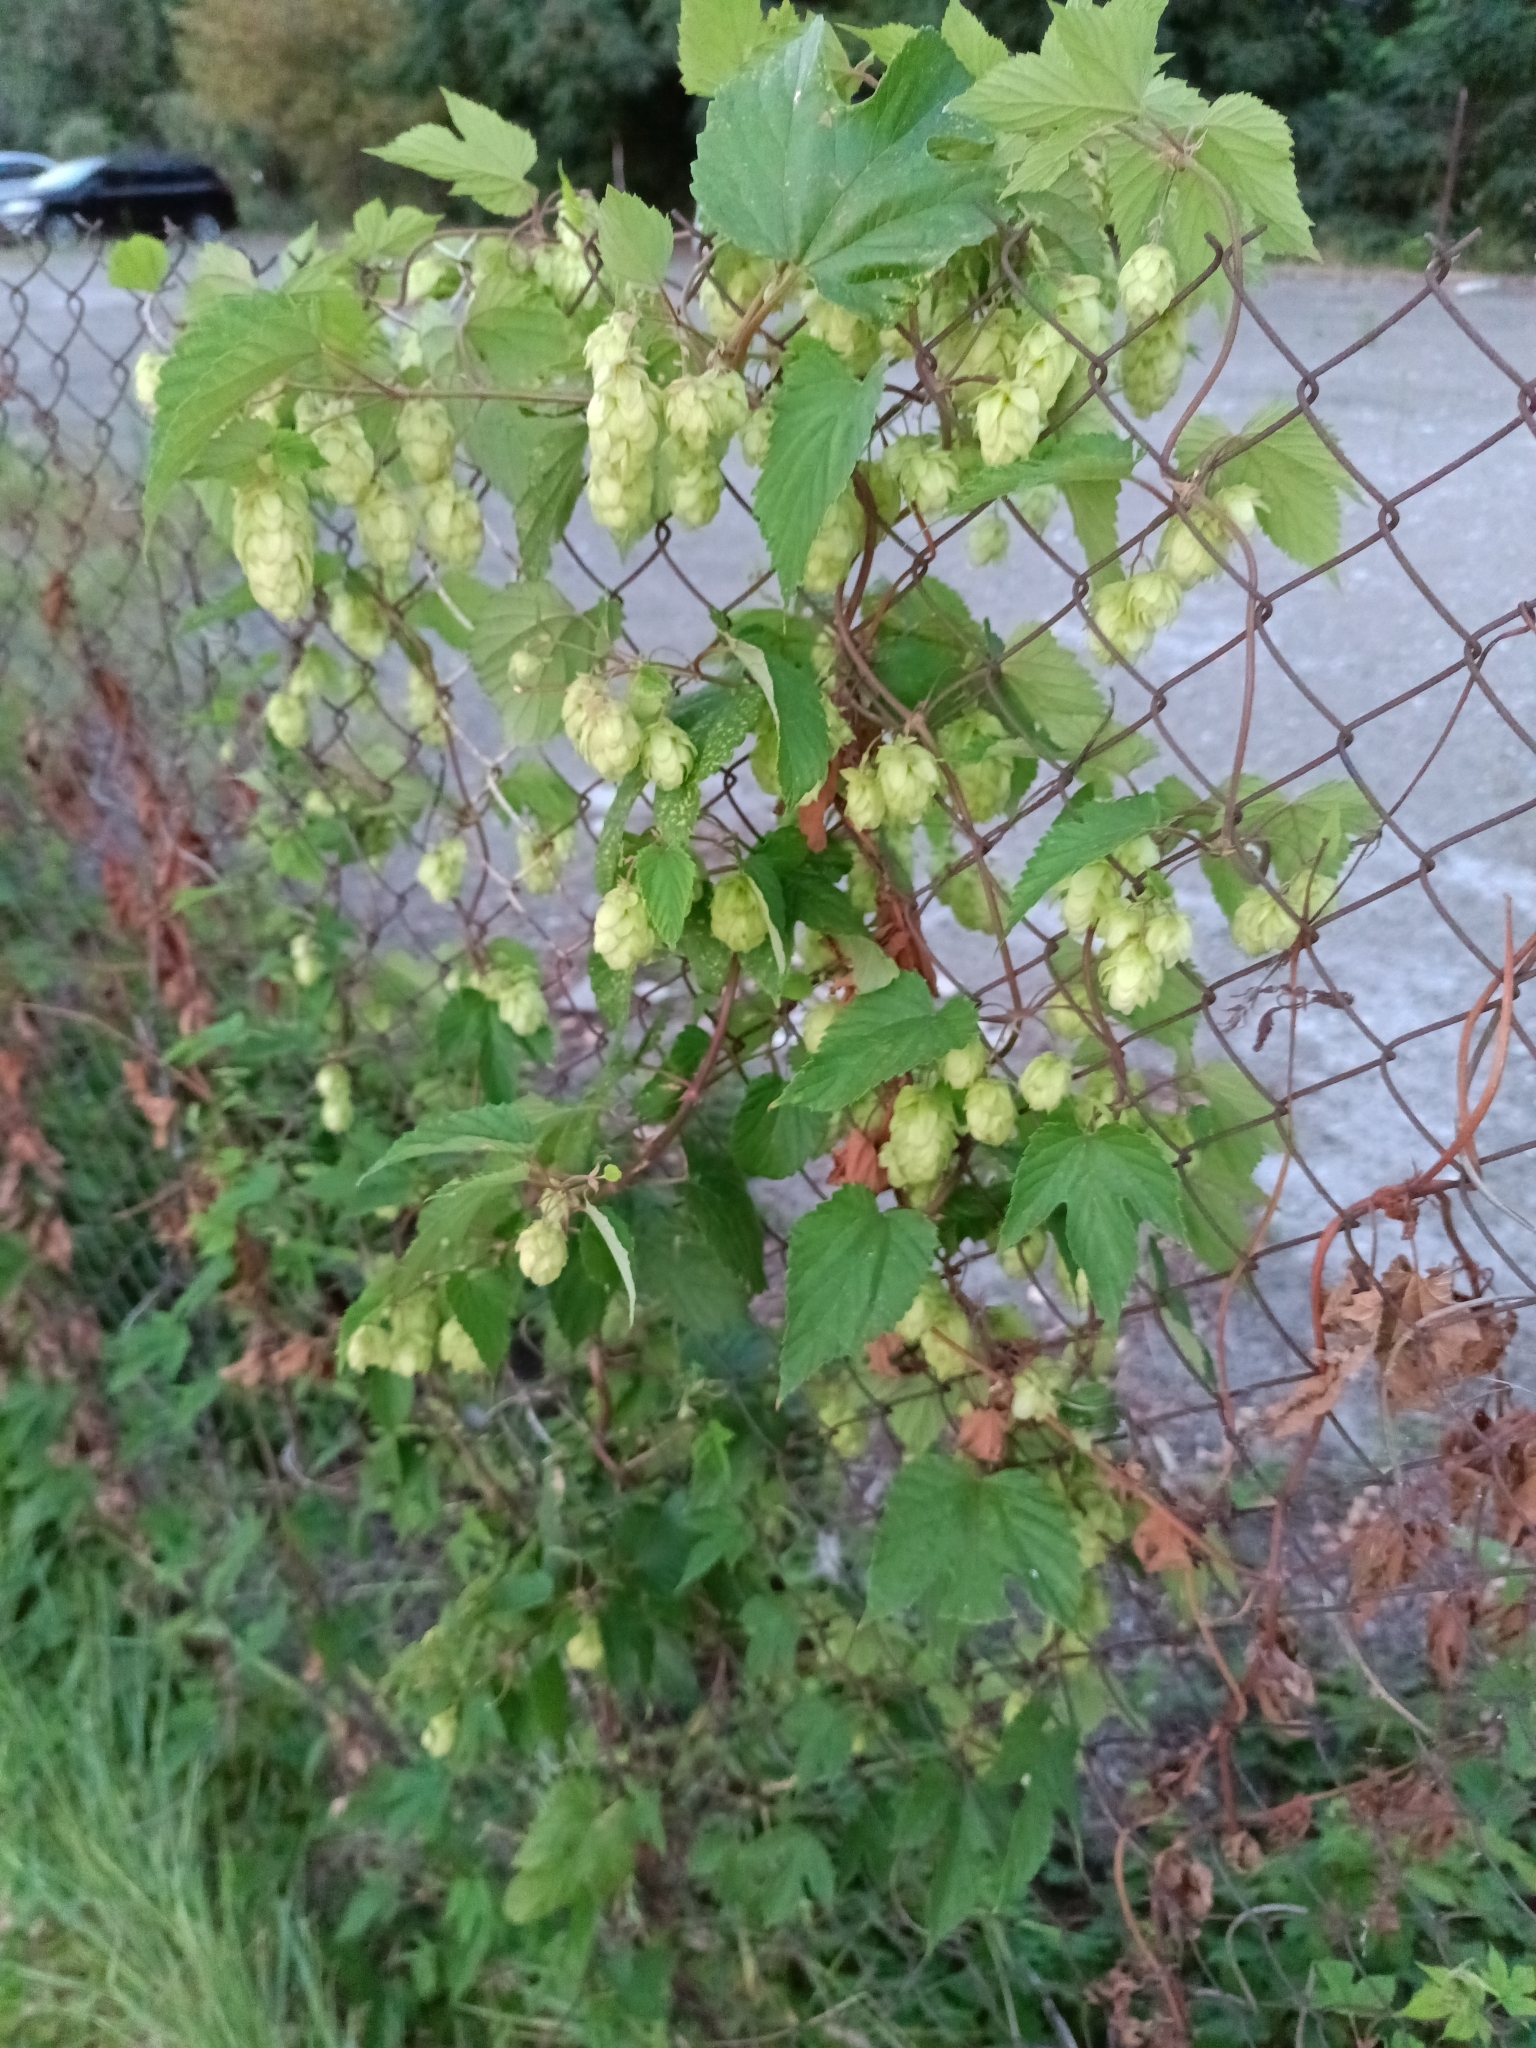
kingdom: Plantae
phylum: Tracheophyta
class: Magnoliopsida
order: Rosales
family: Cannabaceae
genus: Humulus
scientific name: Humulus lupulus
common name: Hop
